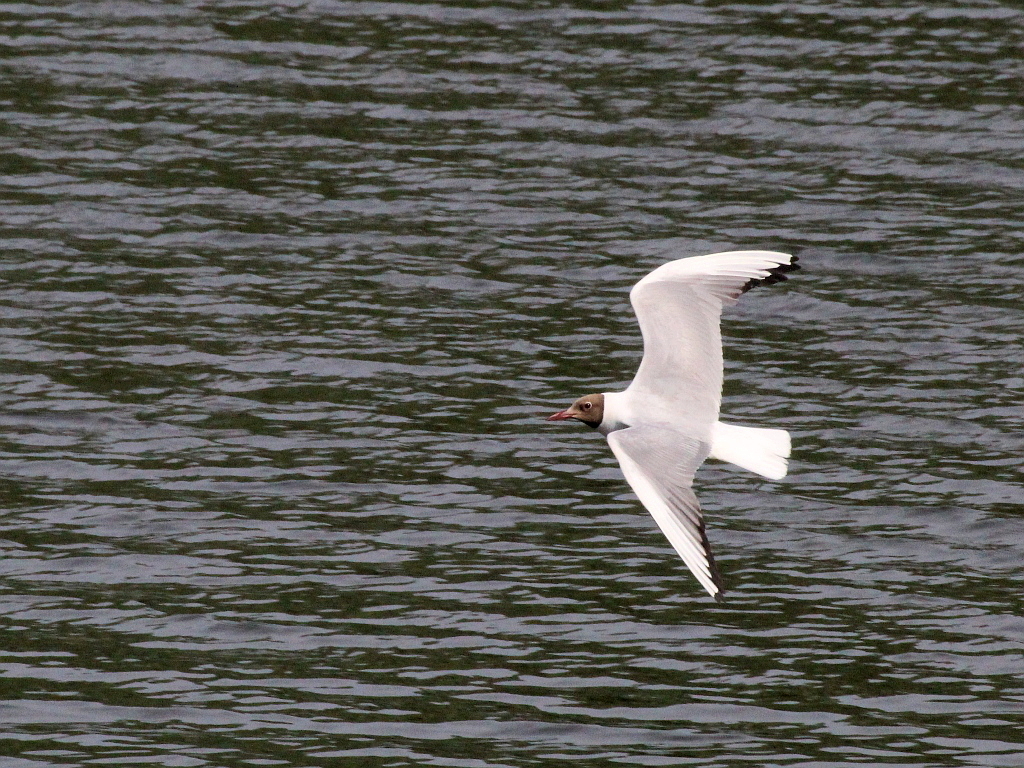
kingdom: Animalia
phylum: Chordata
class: Aves
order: Charadriiformes
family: Laridae
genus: Chroicocephalus
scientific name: Chroicocephalus ridibundus
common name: Black-headed gull
